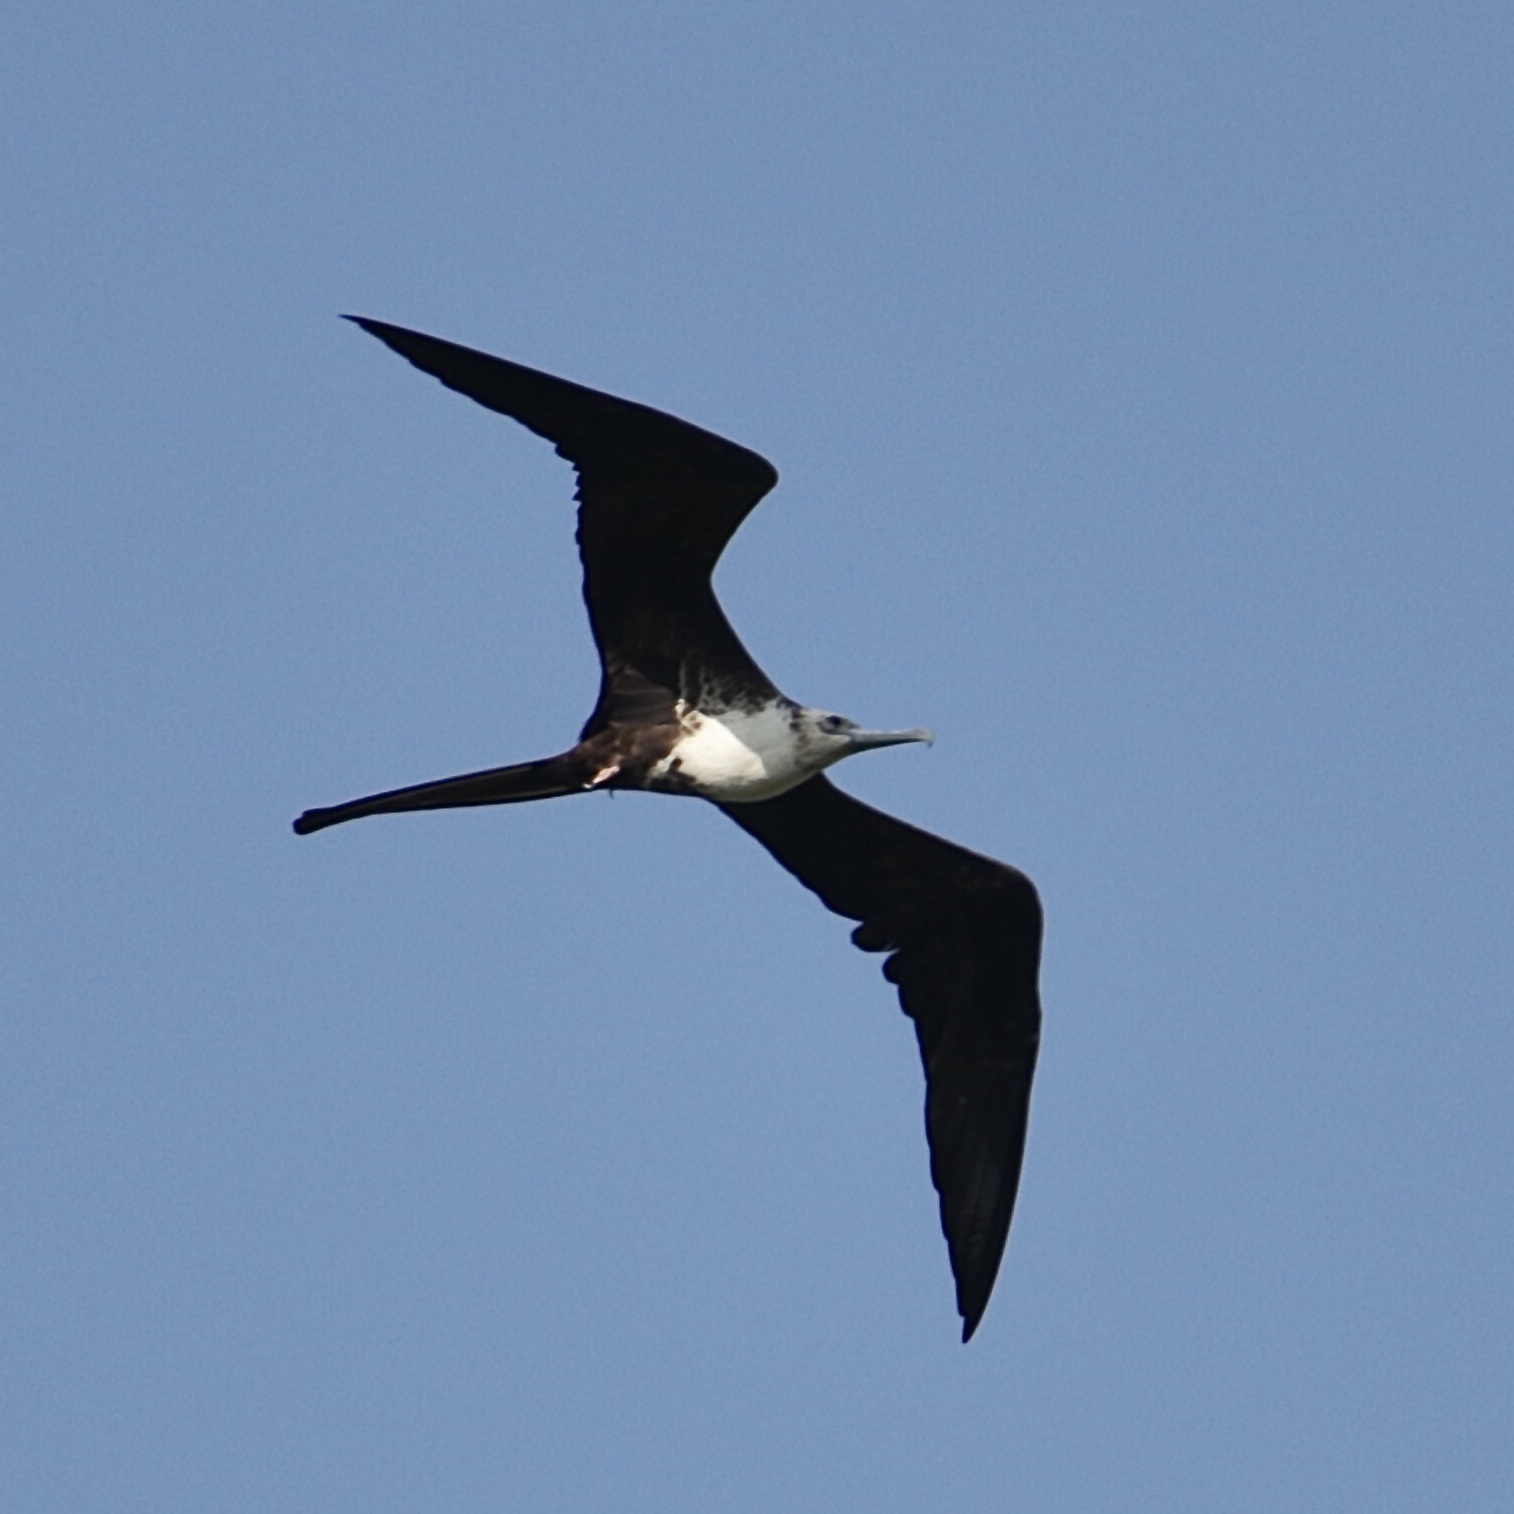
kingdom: Animalia
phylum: Chordata
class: Aves
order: Suliformes
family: Fregatidae
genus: Fregata
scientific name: Fregata magnificens
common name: Magnificent frigatebird
